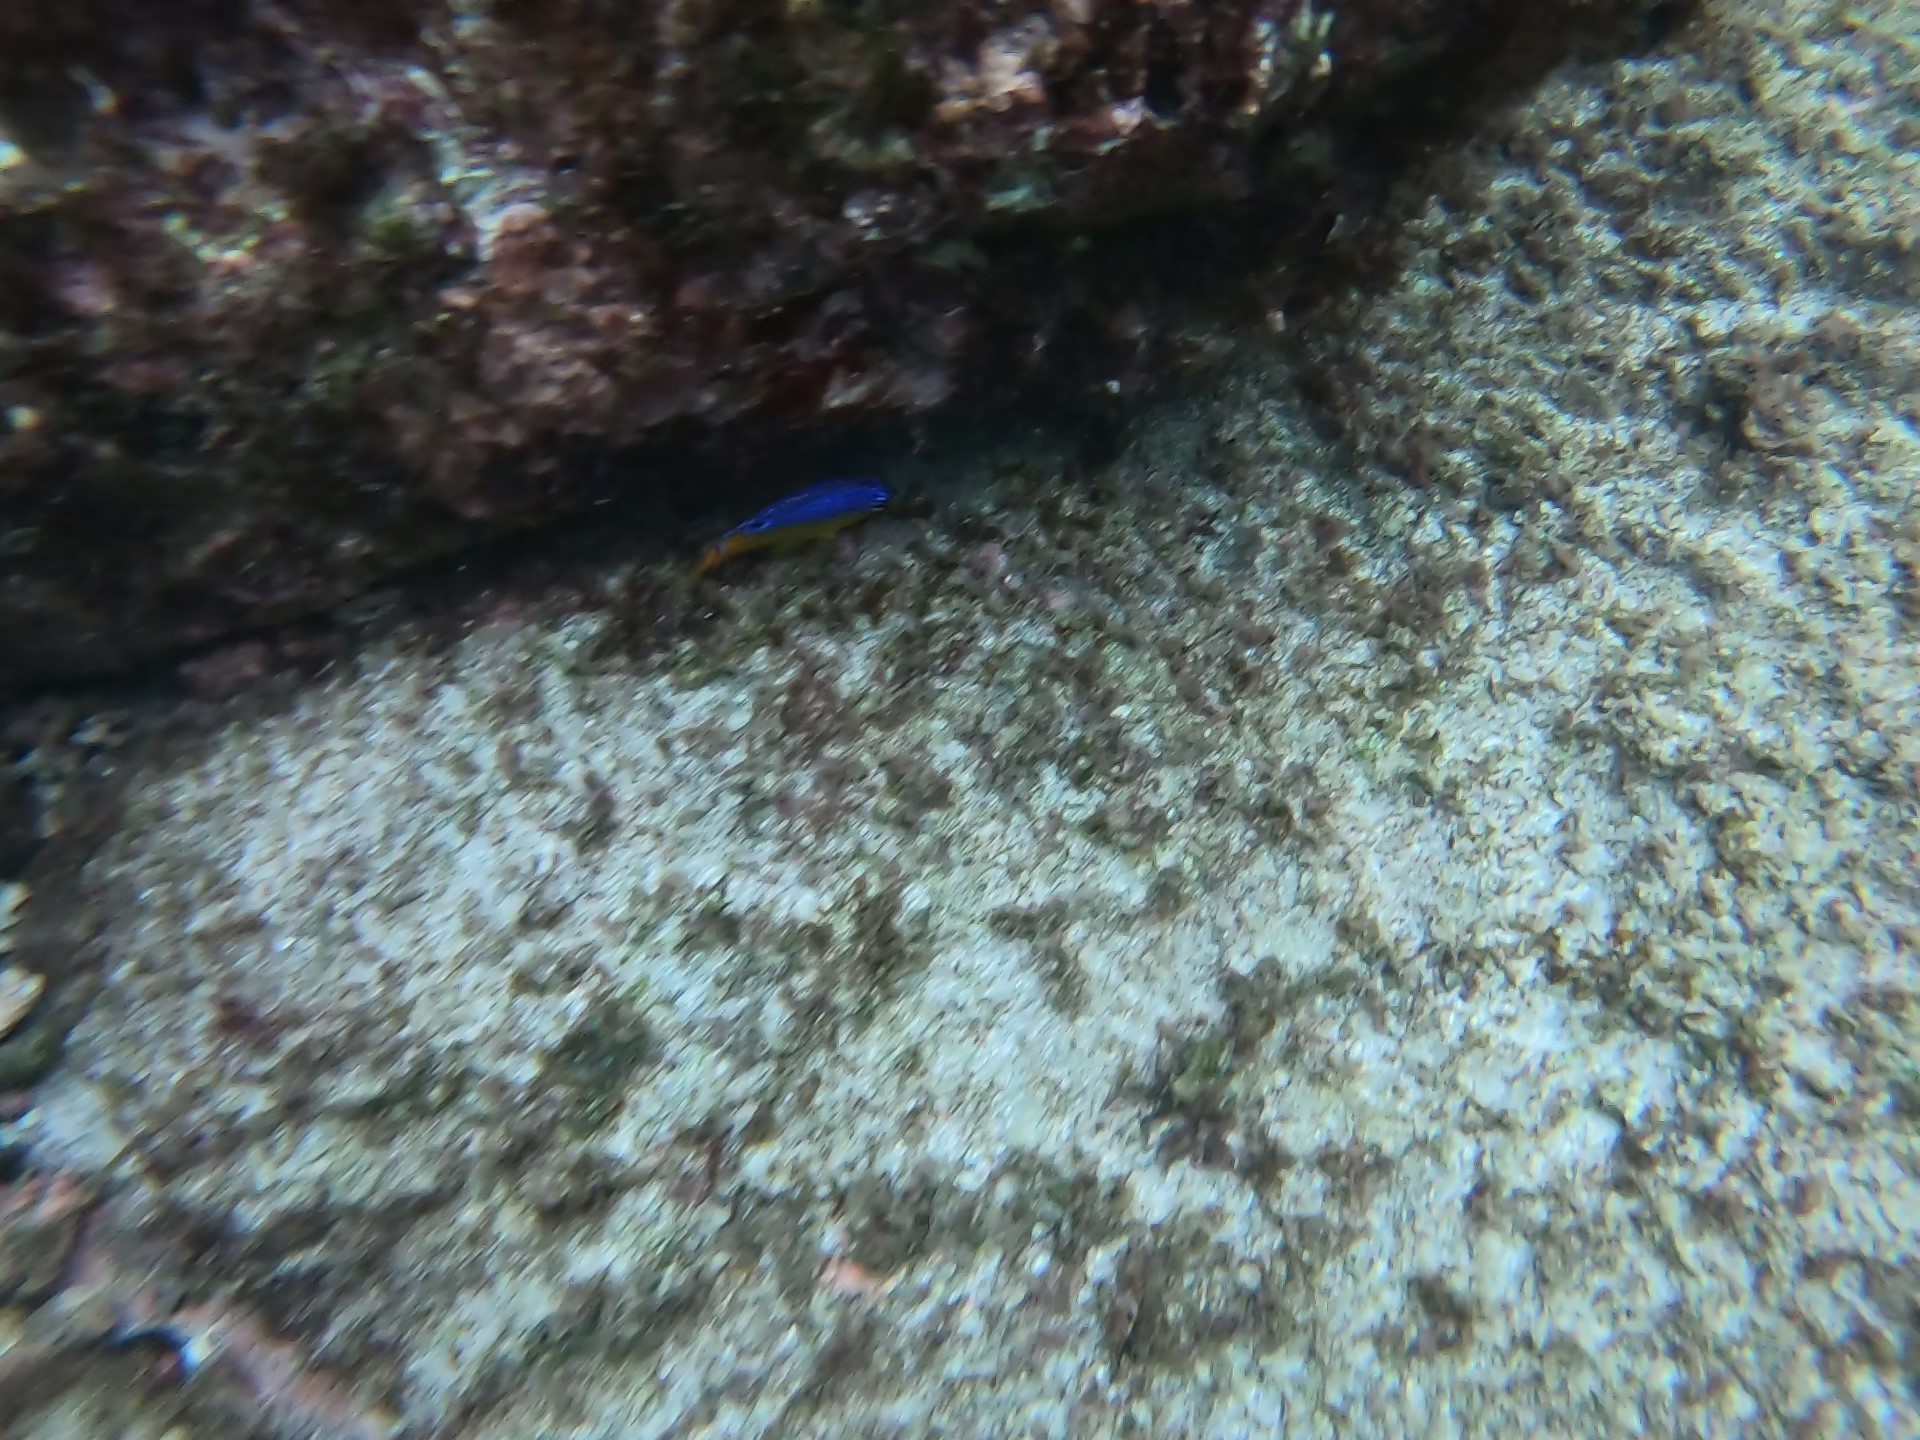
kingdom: Animalia
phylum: Chordata
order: Perciformes
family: Pomacentridae
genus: Stegastes
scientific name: Stegastes flavilatus
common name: Beaubrummel
